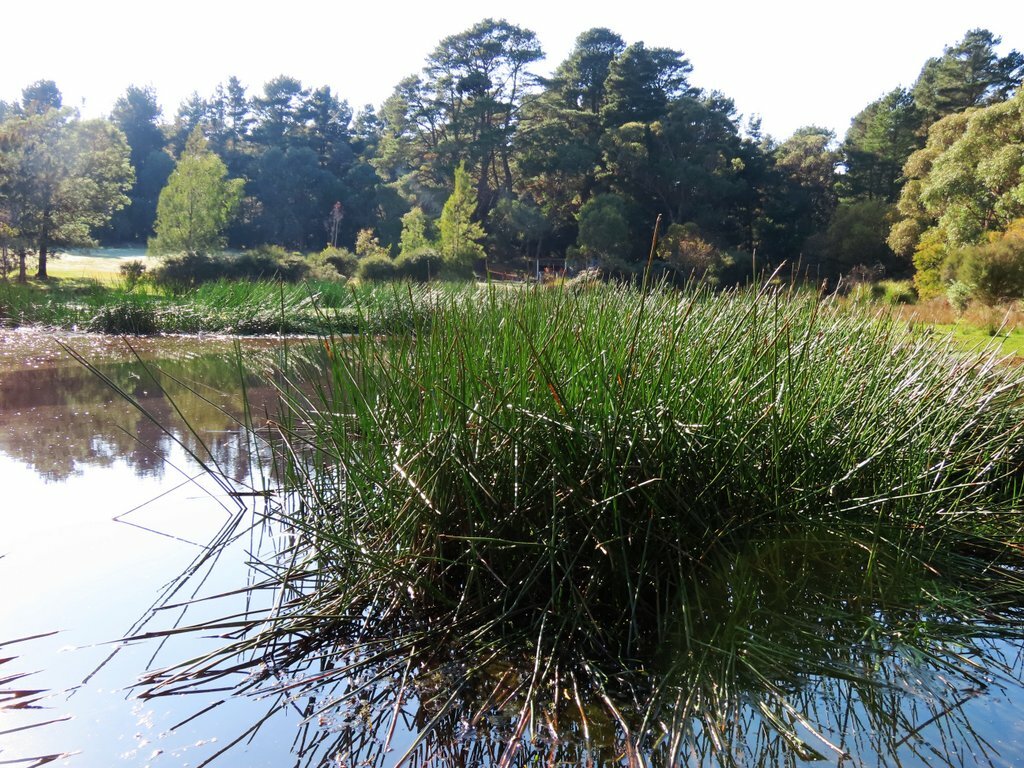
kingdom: Plantae
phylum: Tracheophyta
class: Liliopsida
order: Poales
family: Cyperaceae
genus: Eleocharis
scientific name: Eleocharis sphacelata
